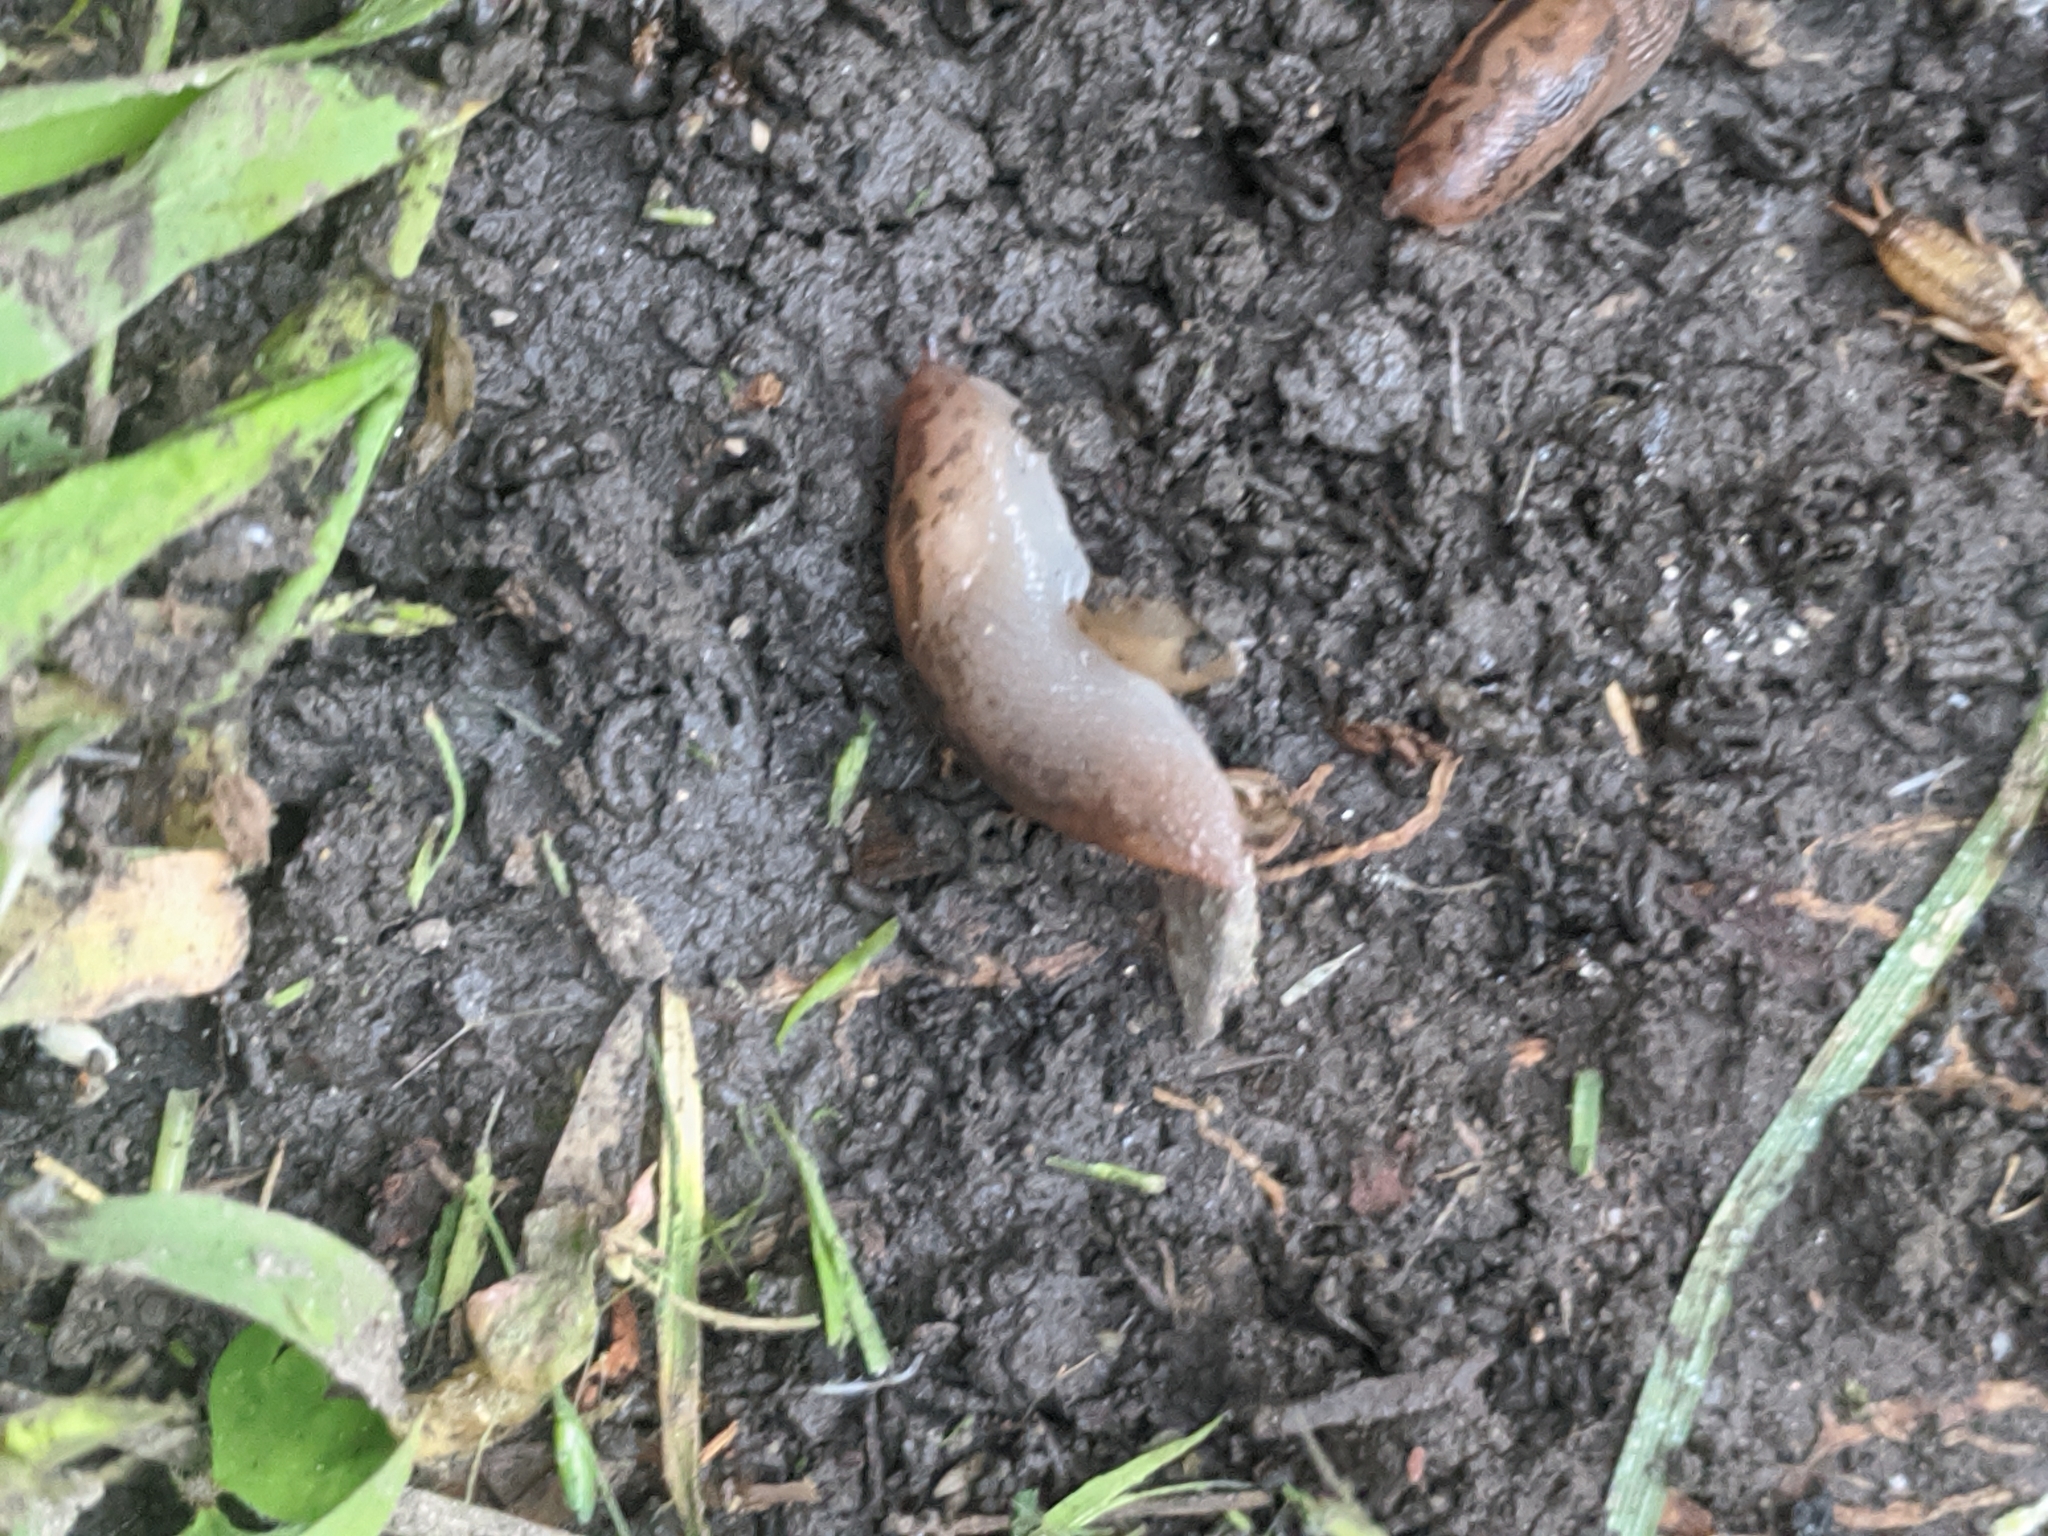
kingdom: Animalia
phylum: Mollusca
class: Gastropoda
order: Stylommatophora
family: Limacidae
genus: Ambigolimax
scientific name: Ambigolimax
